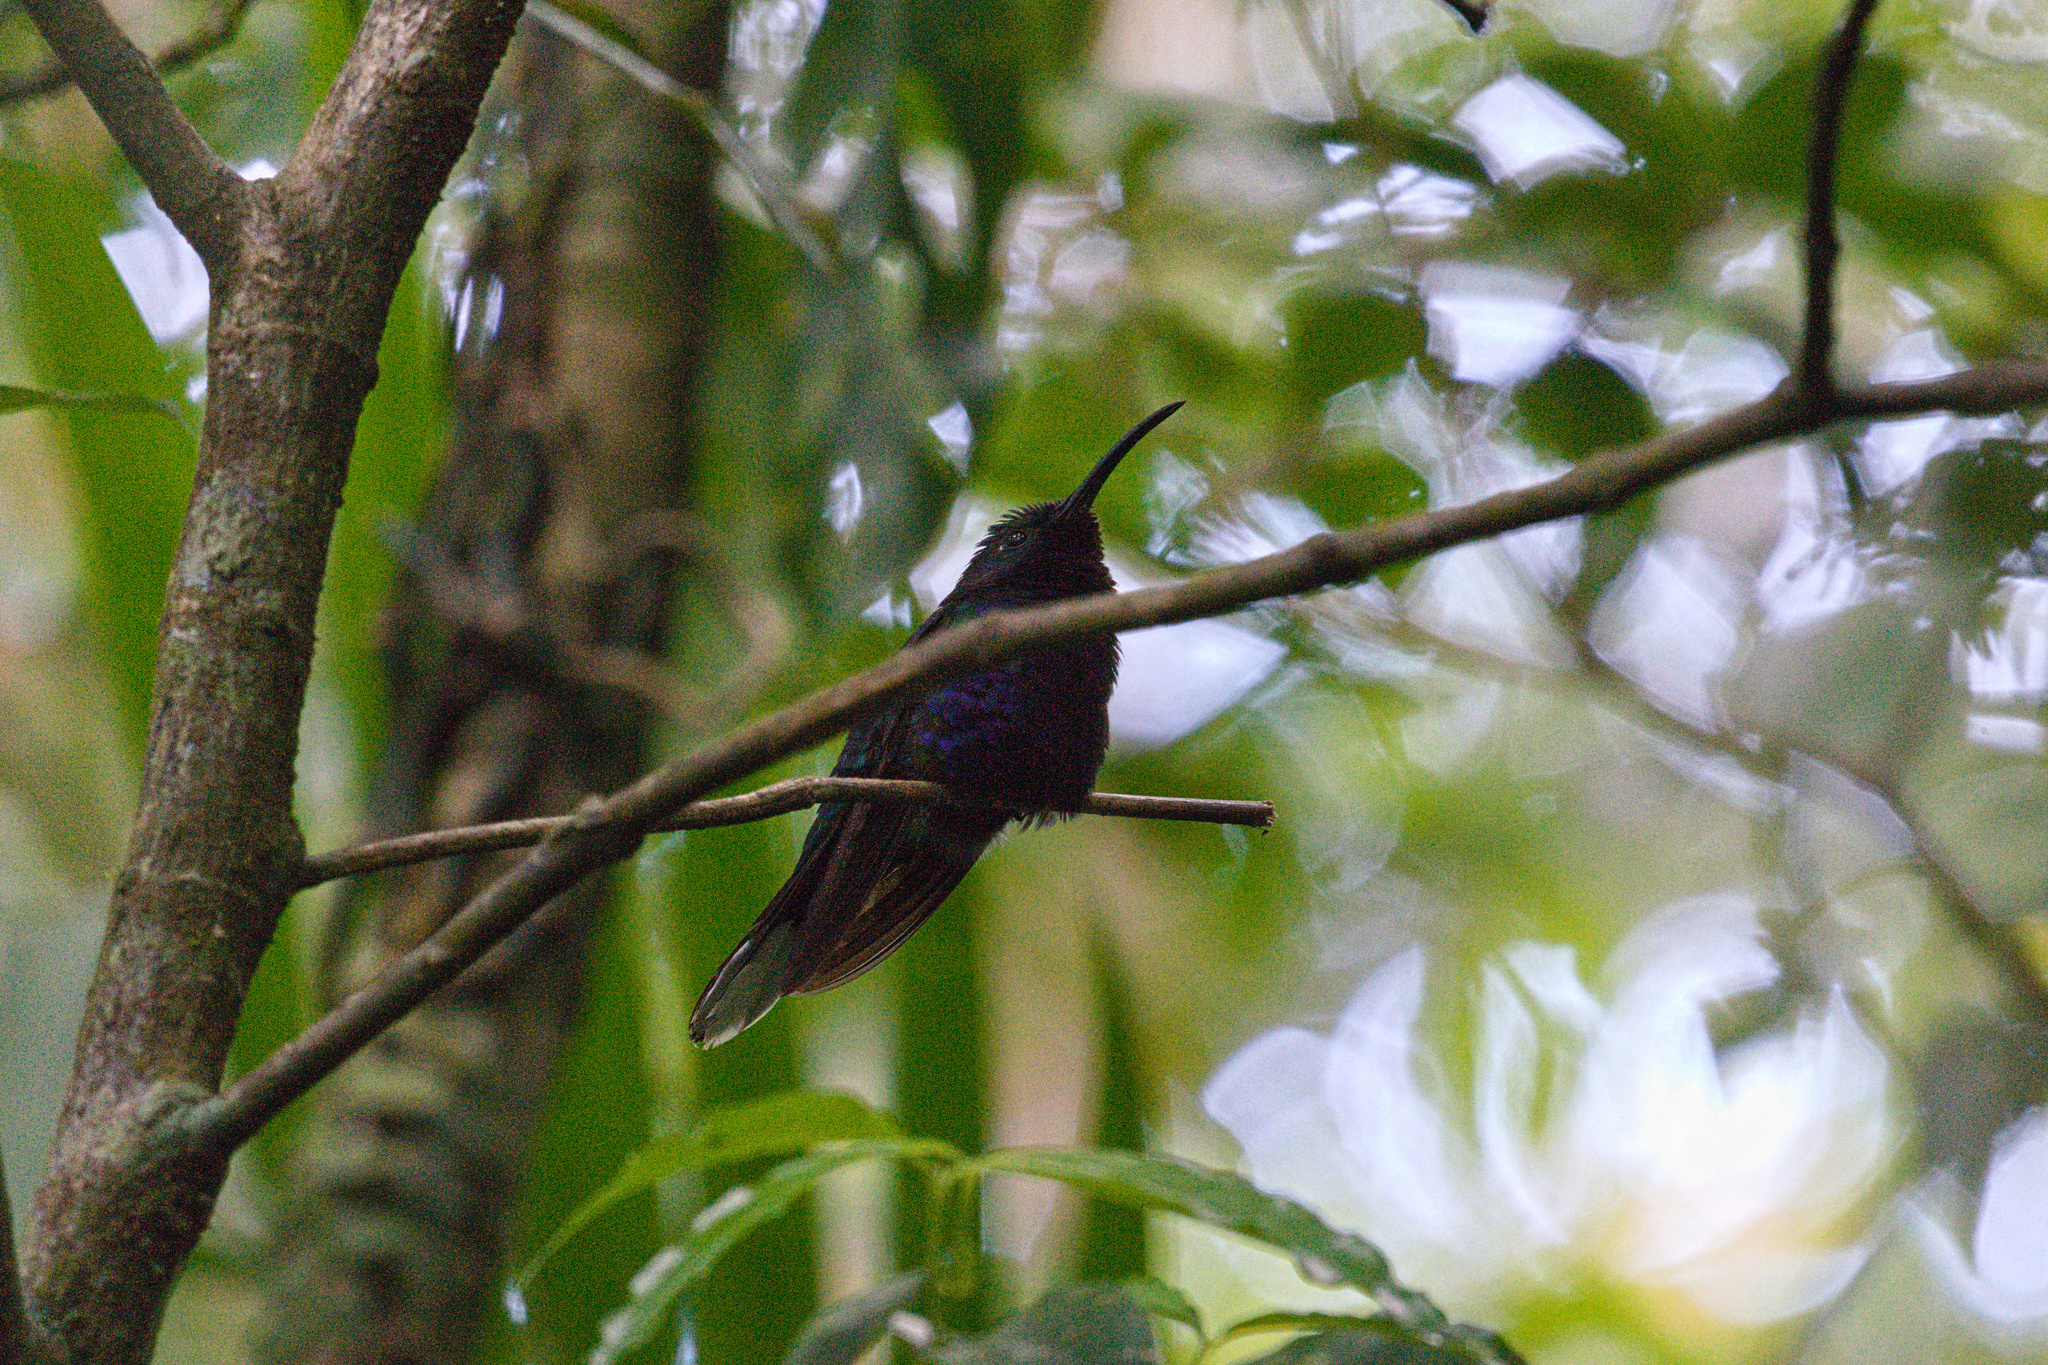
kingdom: Animalia
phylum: Chordata
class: Aves
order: Apodiformes
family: Trochilidae
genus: Campylopterus
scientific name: Campylopterus hemileucurus
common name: Violet sabrewing
